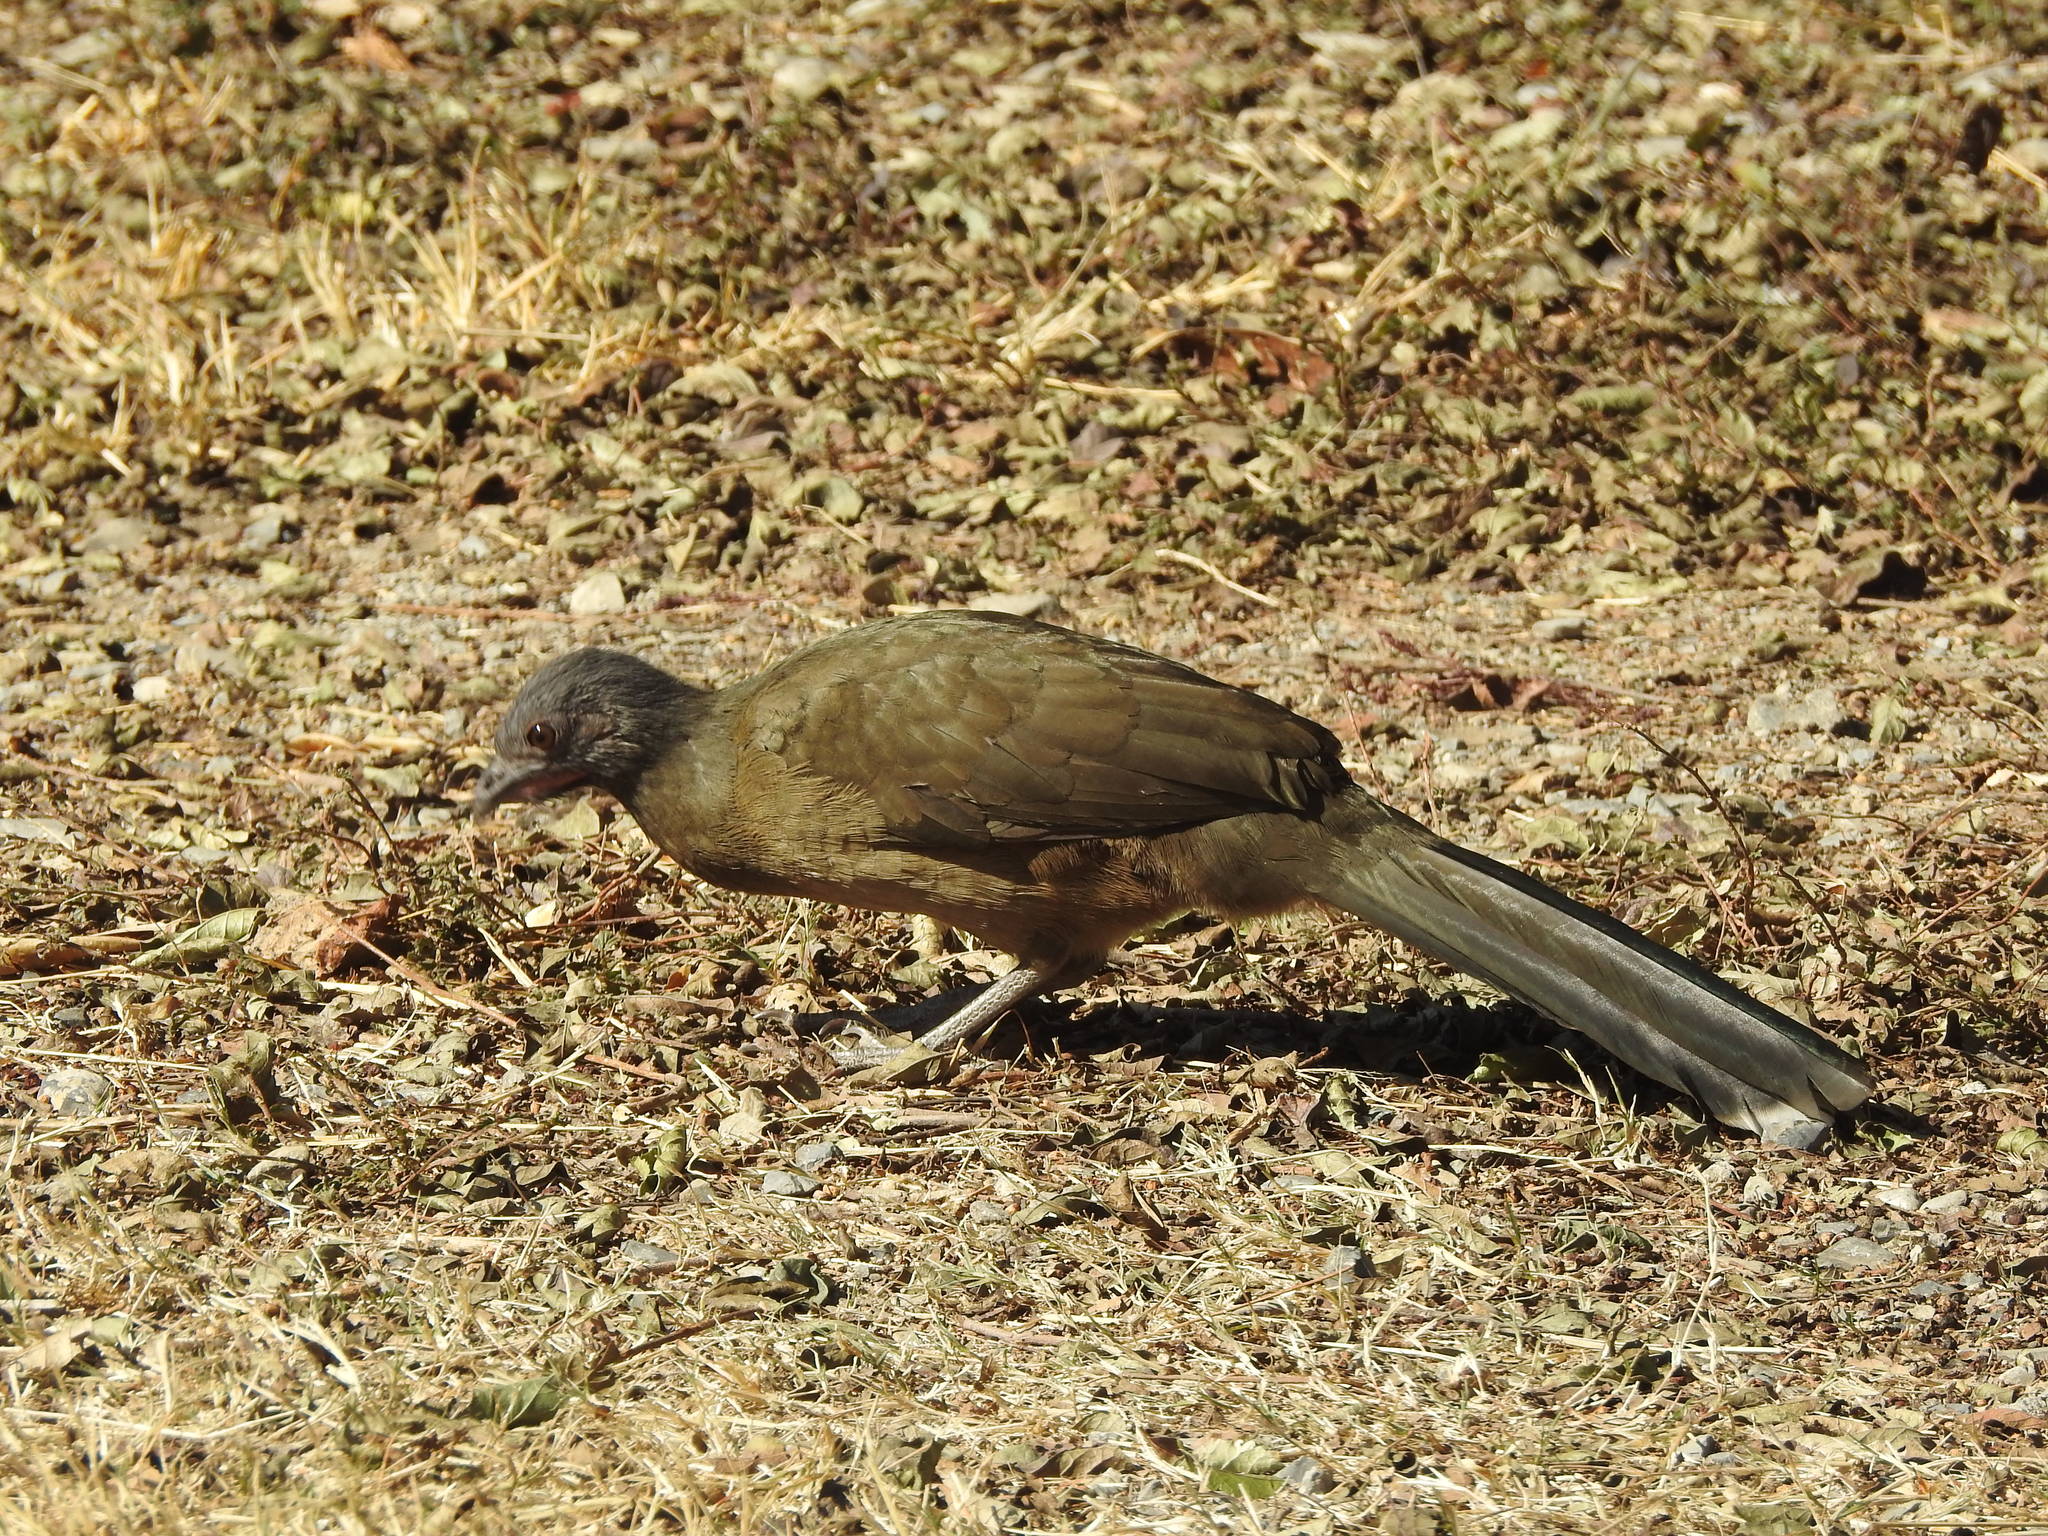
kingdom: Animalia
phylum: Chordata
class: Aves
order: Galliformes
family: Cracidae
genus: Ortalis
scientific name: Ortalis vetula
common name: Plain chachalaca
